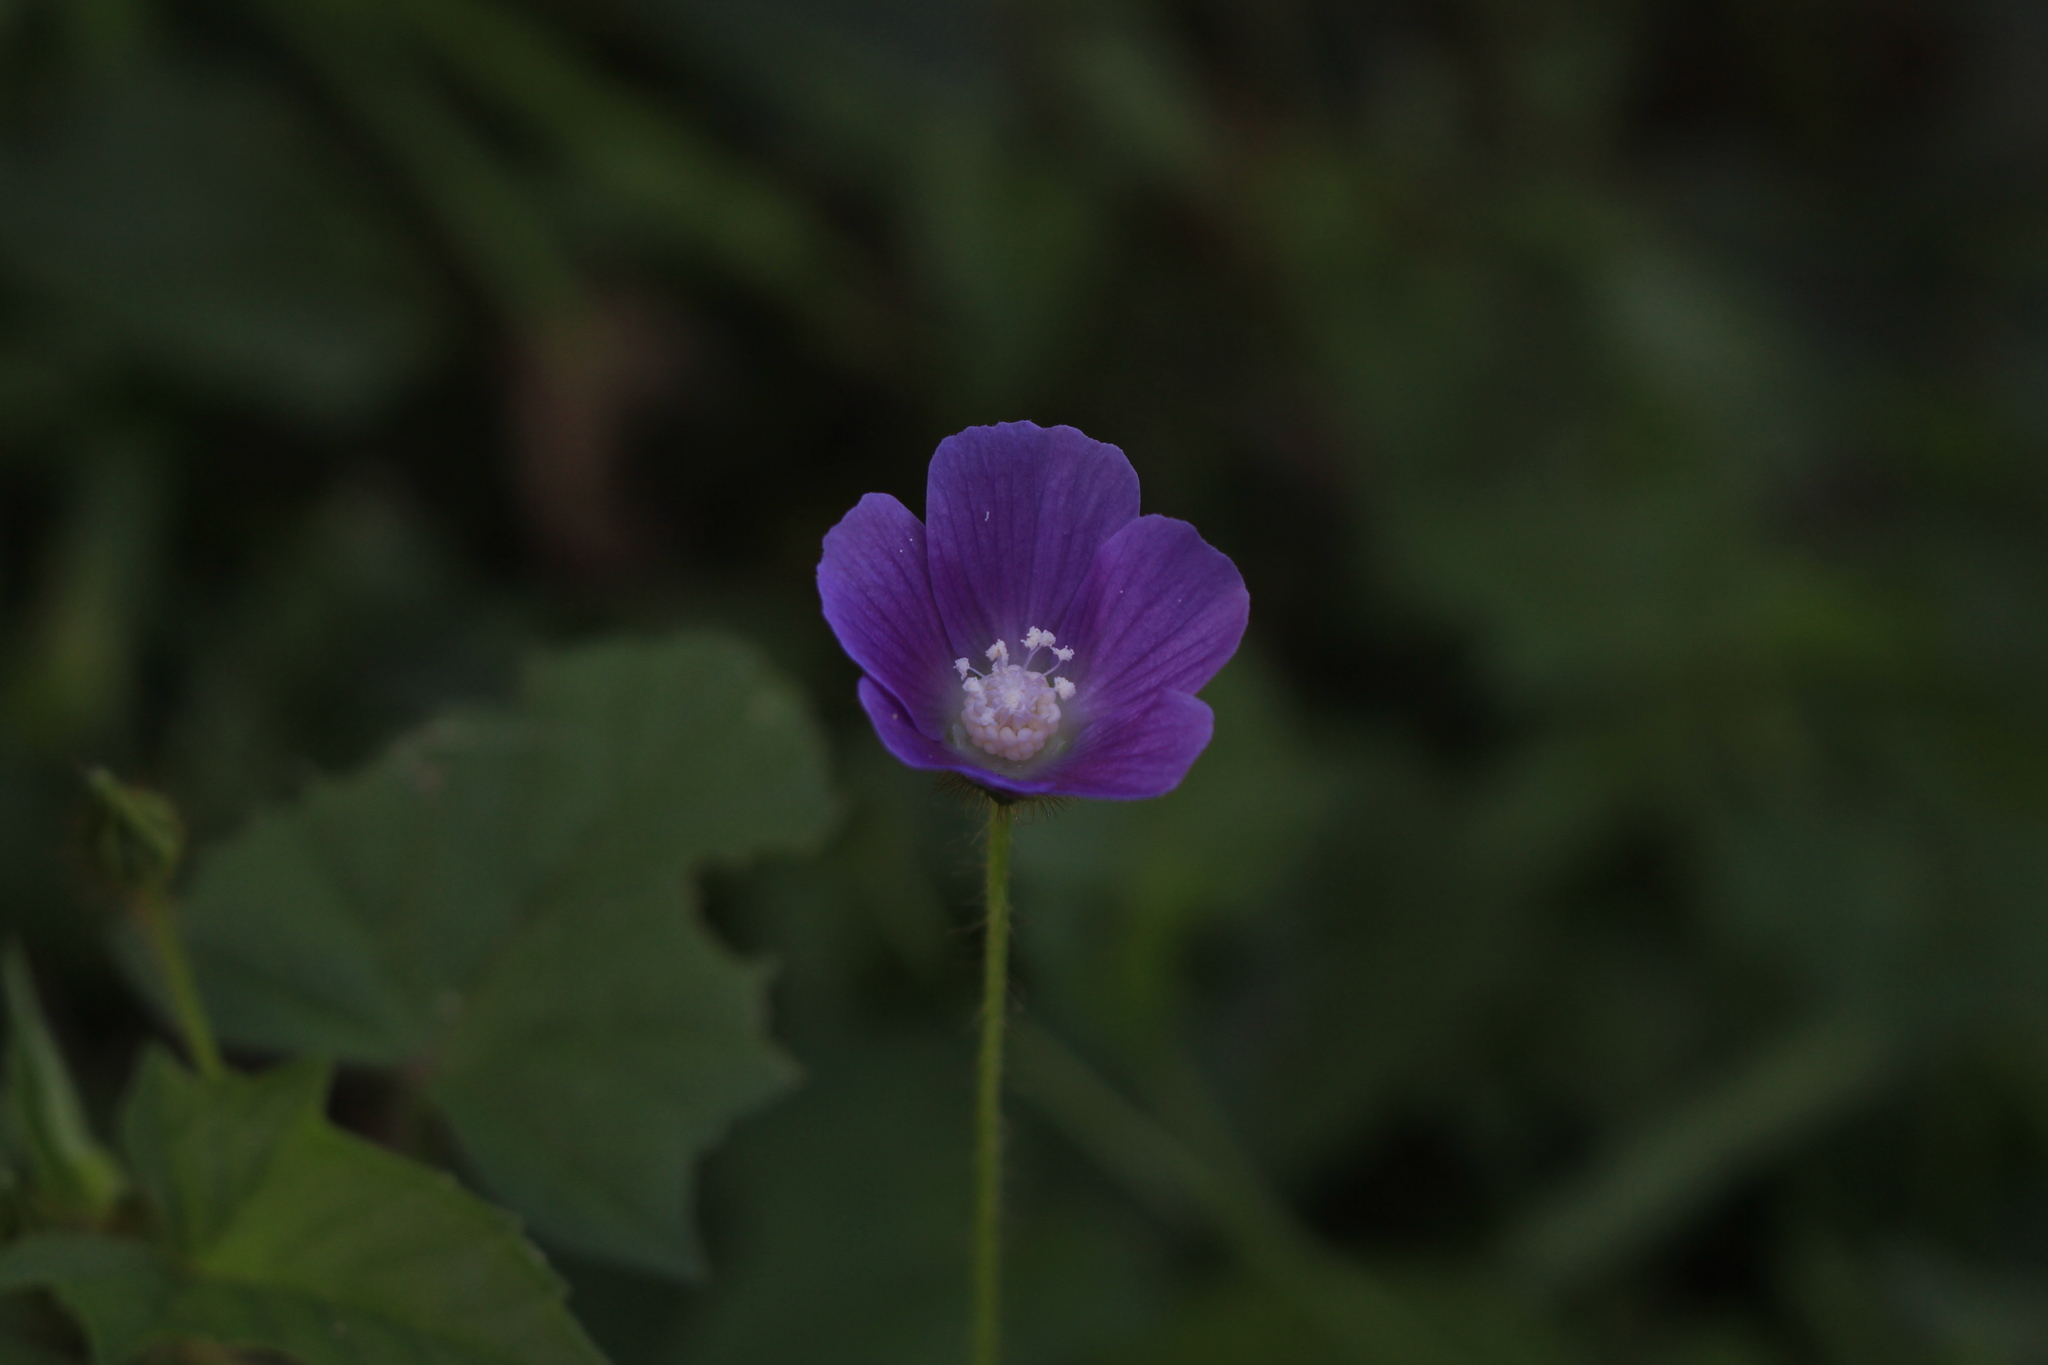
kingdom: Plantae
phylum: Tracheophyta
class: Magnoliopsida
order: Malvales
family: Malvaceae
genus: Anoda
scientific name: Anoda cristata
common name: Spurred anoda
